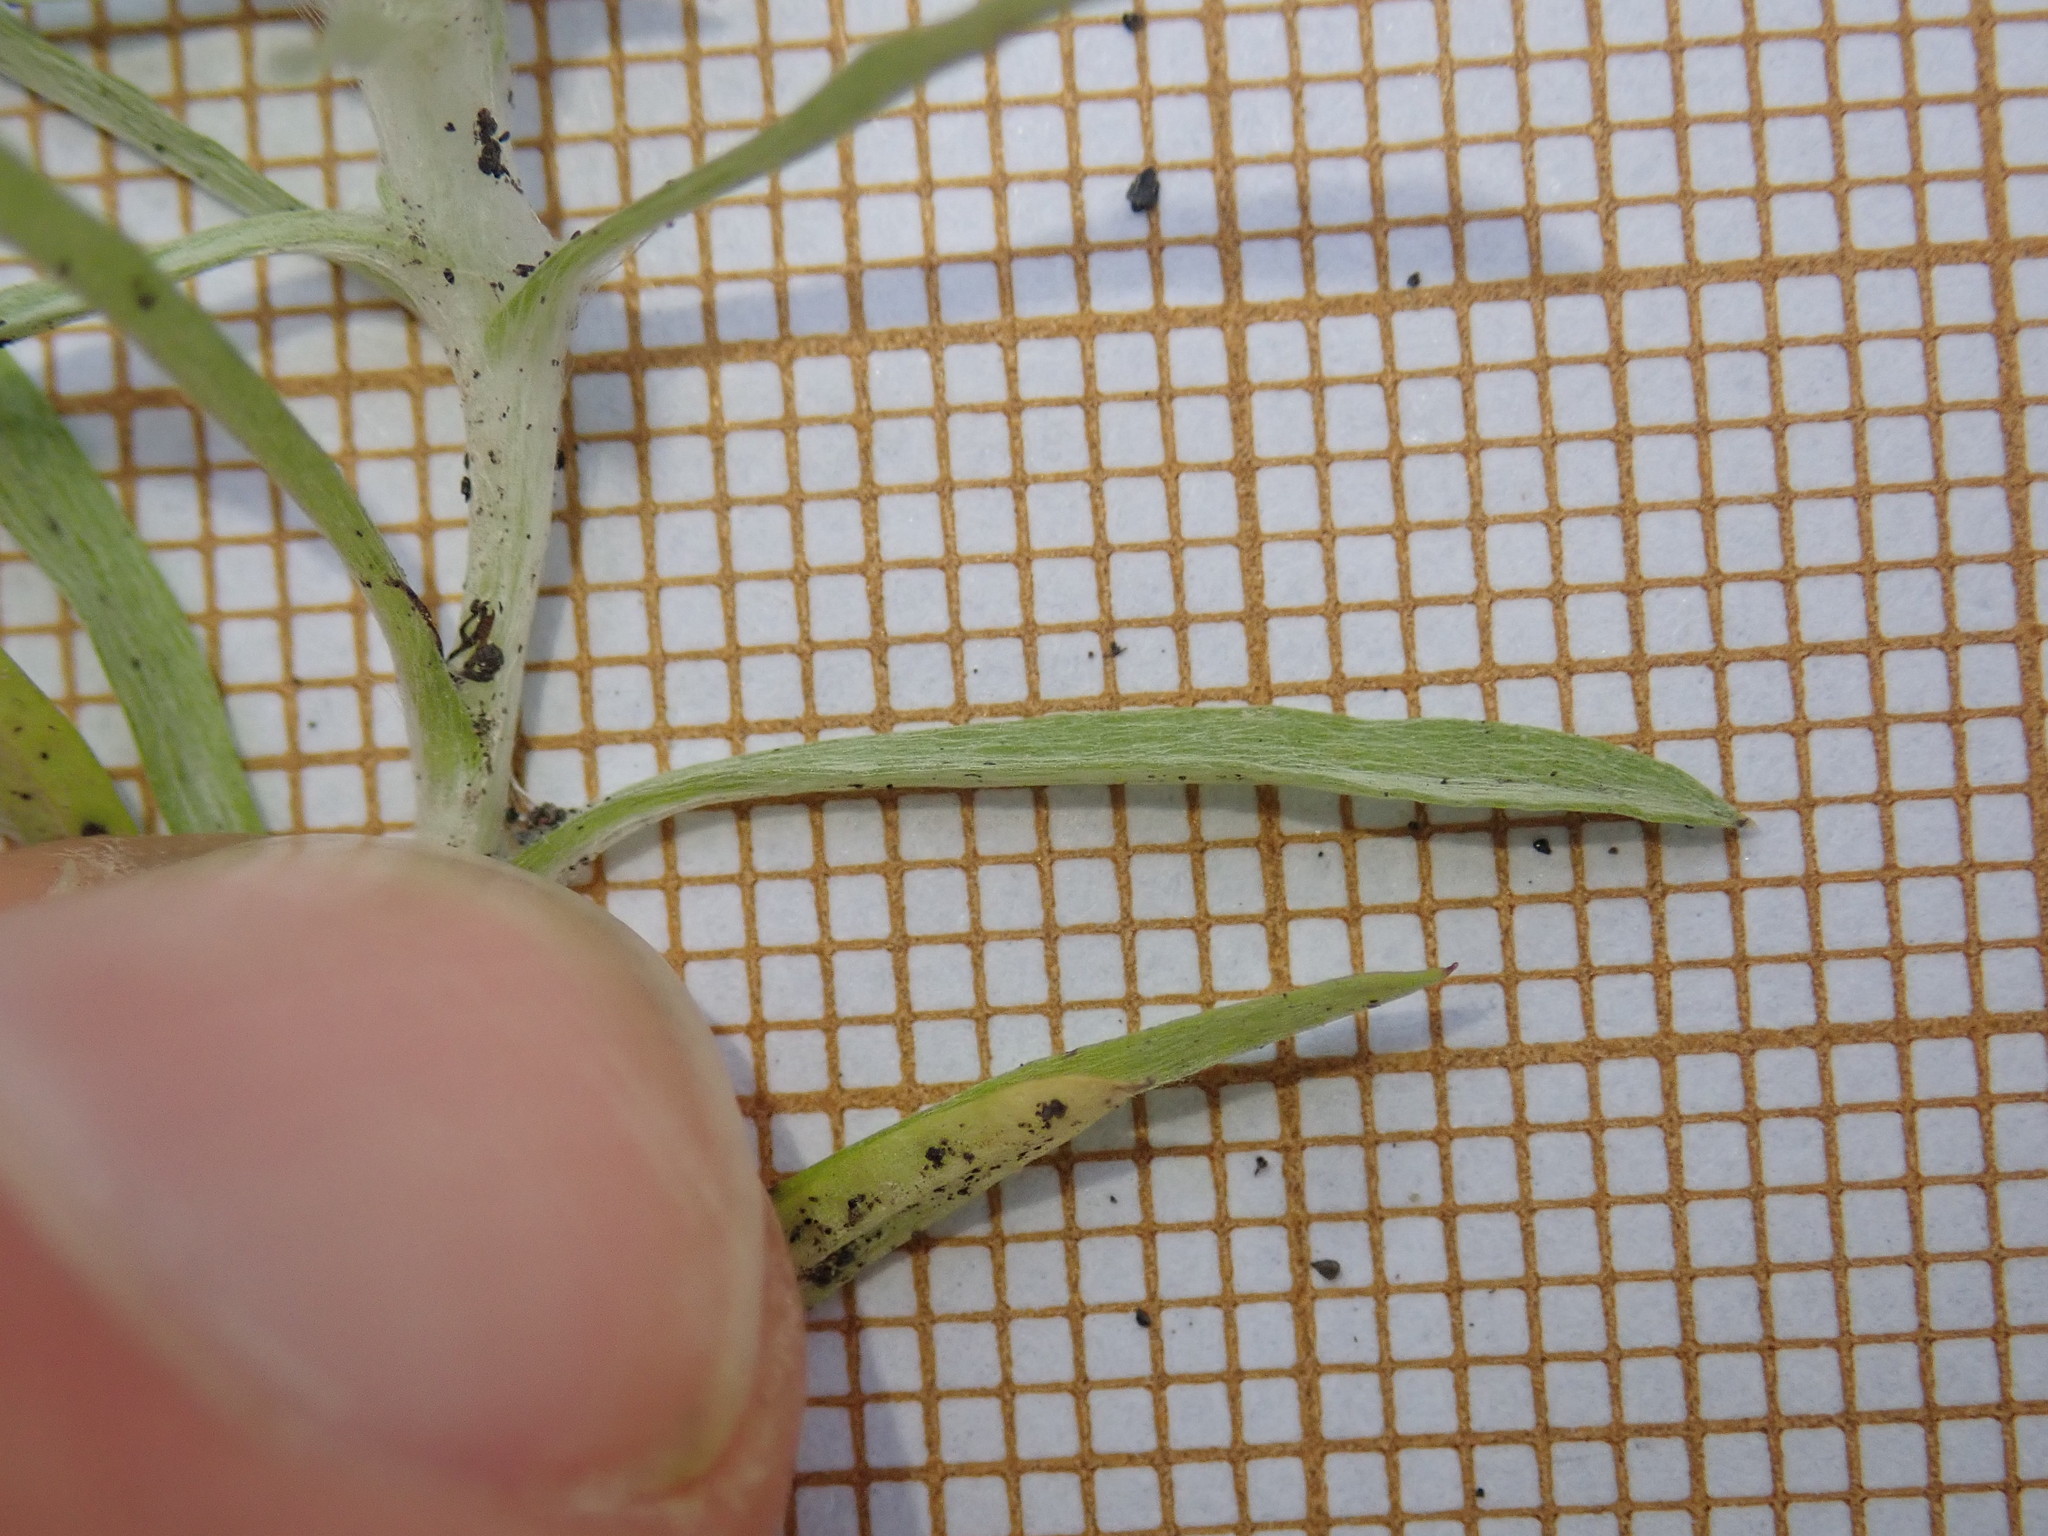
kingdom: Plantae
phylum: Tracheophyta
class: Magnoliopsida
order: Asterales
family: Asteraceae
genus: Gnaphalium
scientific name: Gnaphalium uliginosum
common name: Marsh cudweed
